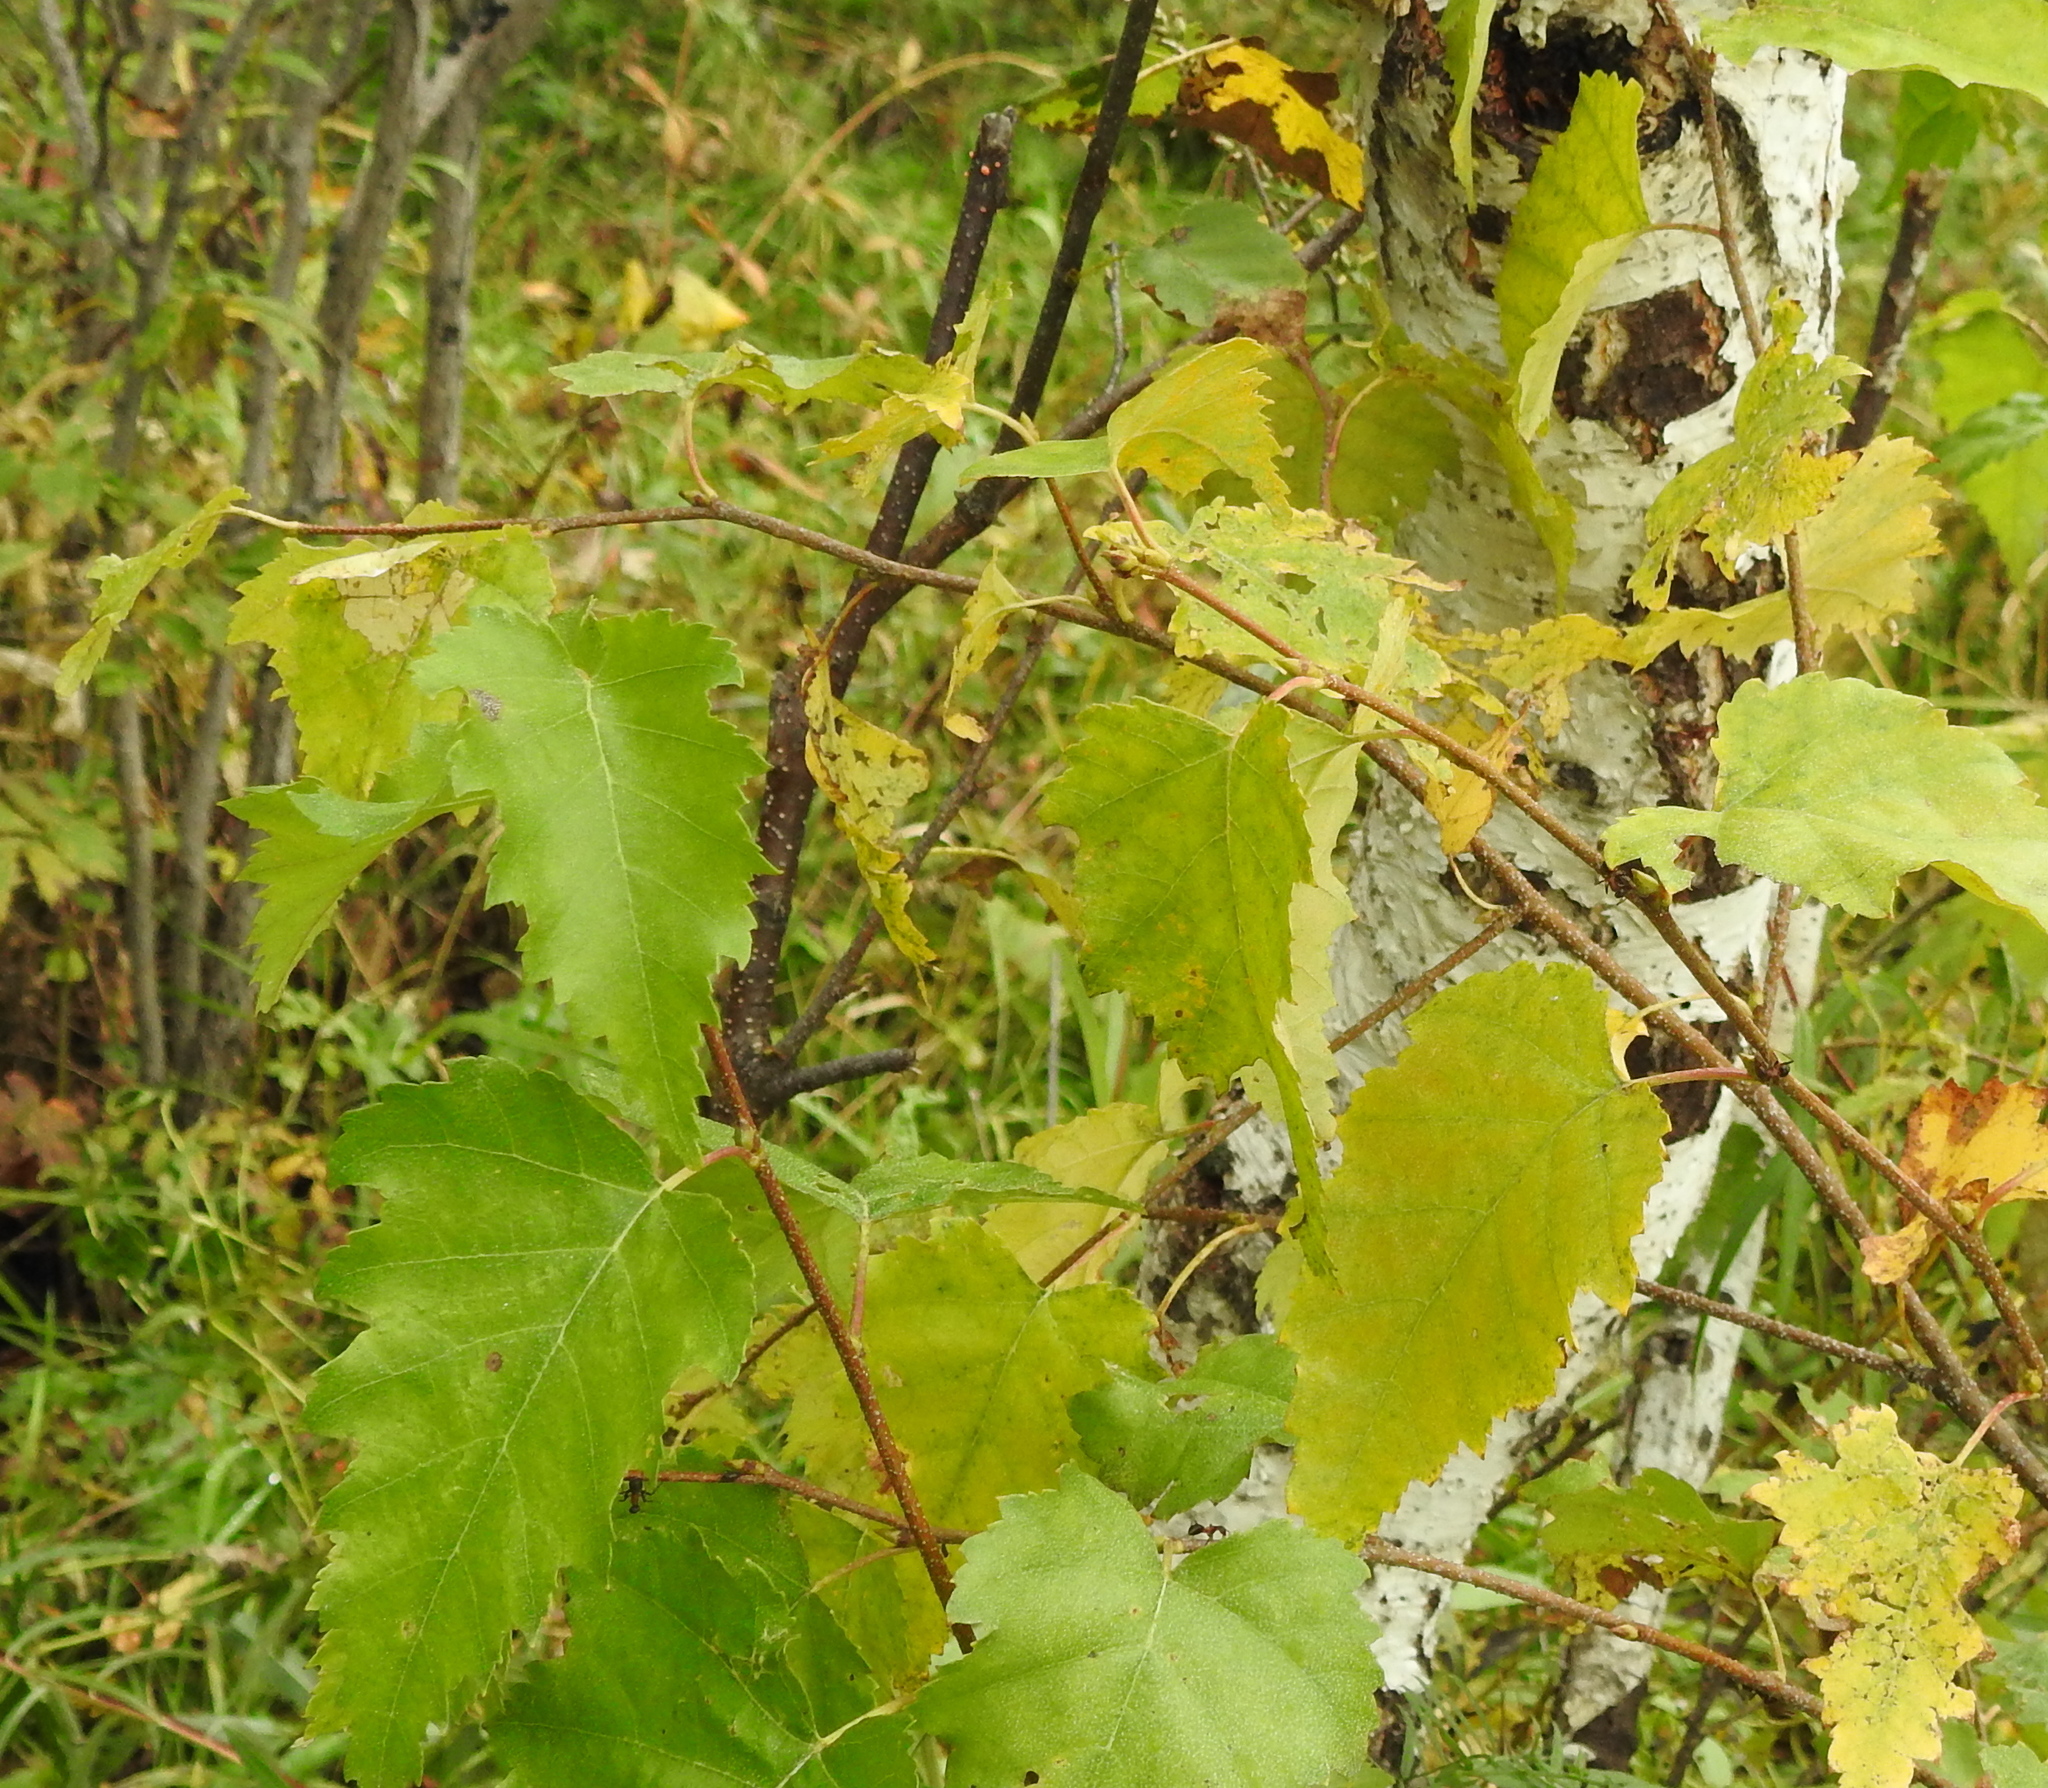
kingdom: Plantae
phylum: Tracheophyta
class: Magnoliopsida
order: Fagales
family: Betulaceae
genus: Betula
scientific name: Betula pendula
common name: Silver birch
